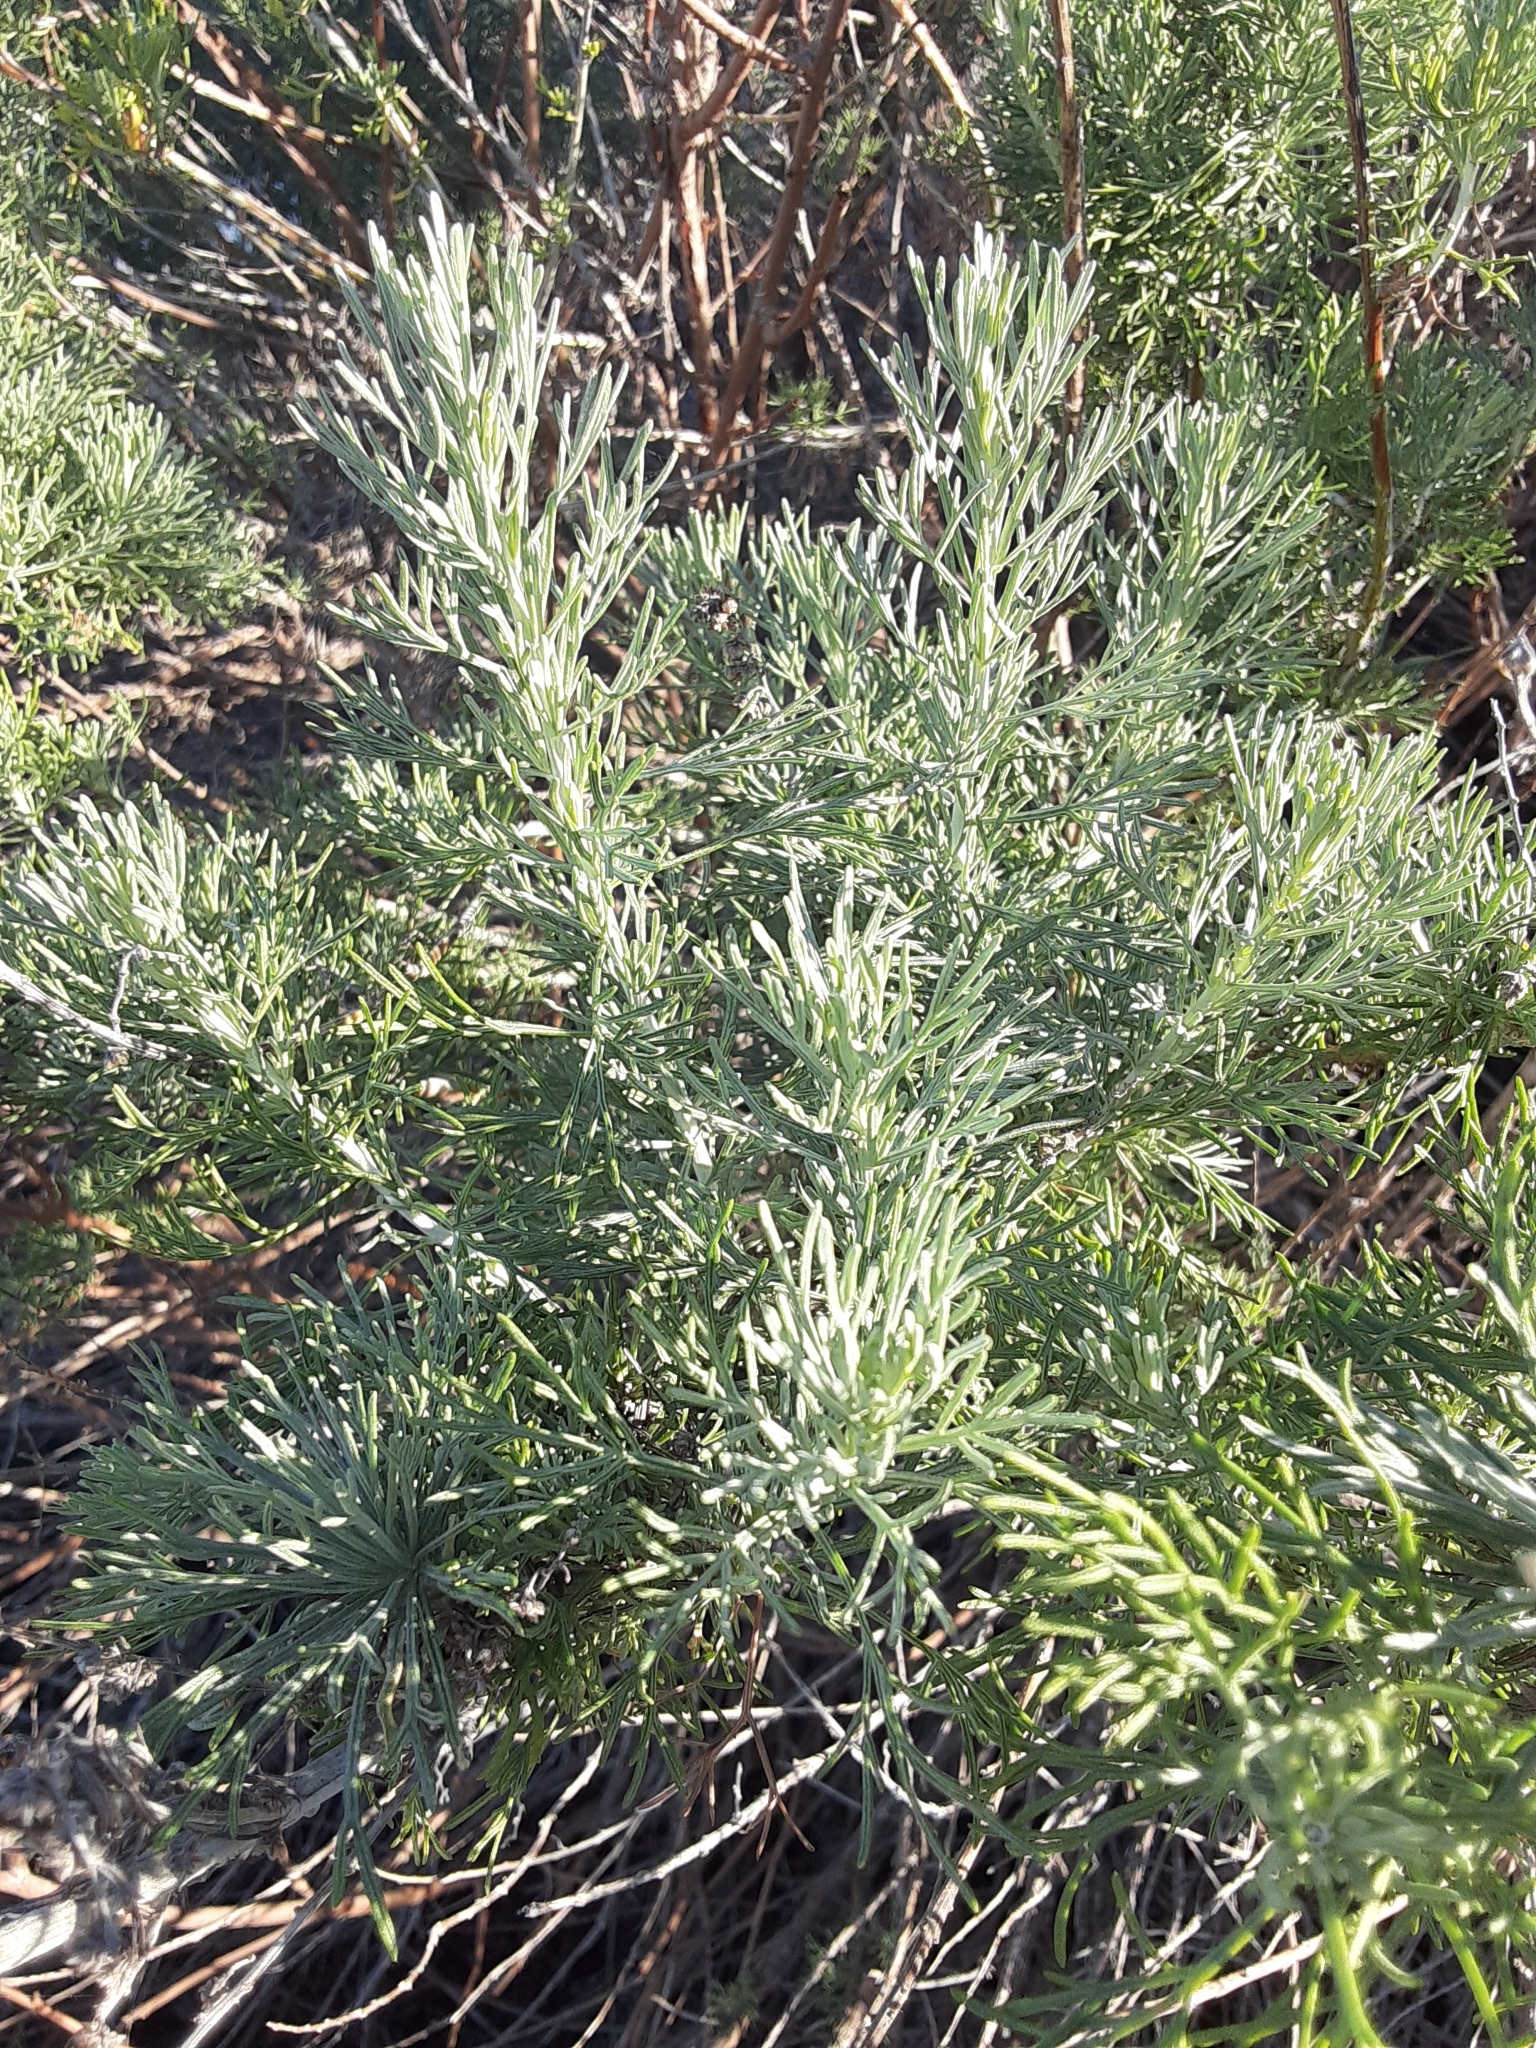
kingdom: Plantae
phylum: Tracheophyta
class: Magnoliopsida
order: Asterales
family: Asteraceae
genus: Artemisia
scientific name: Artemisia californica
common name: California sagebrush
